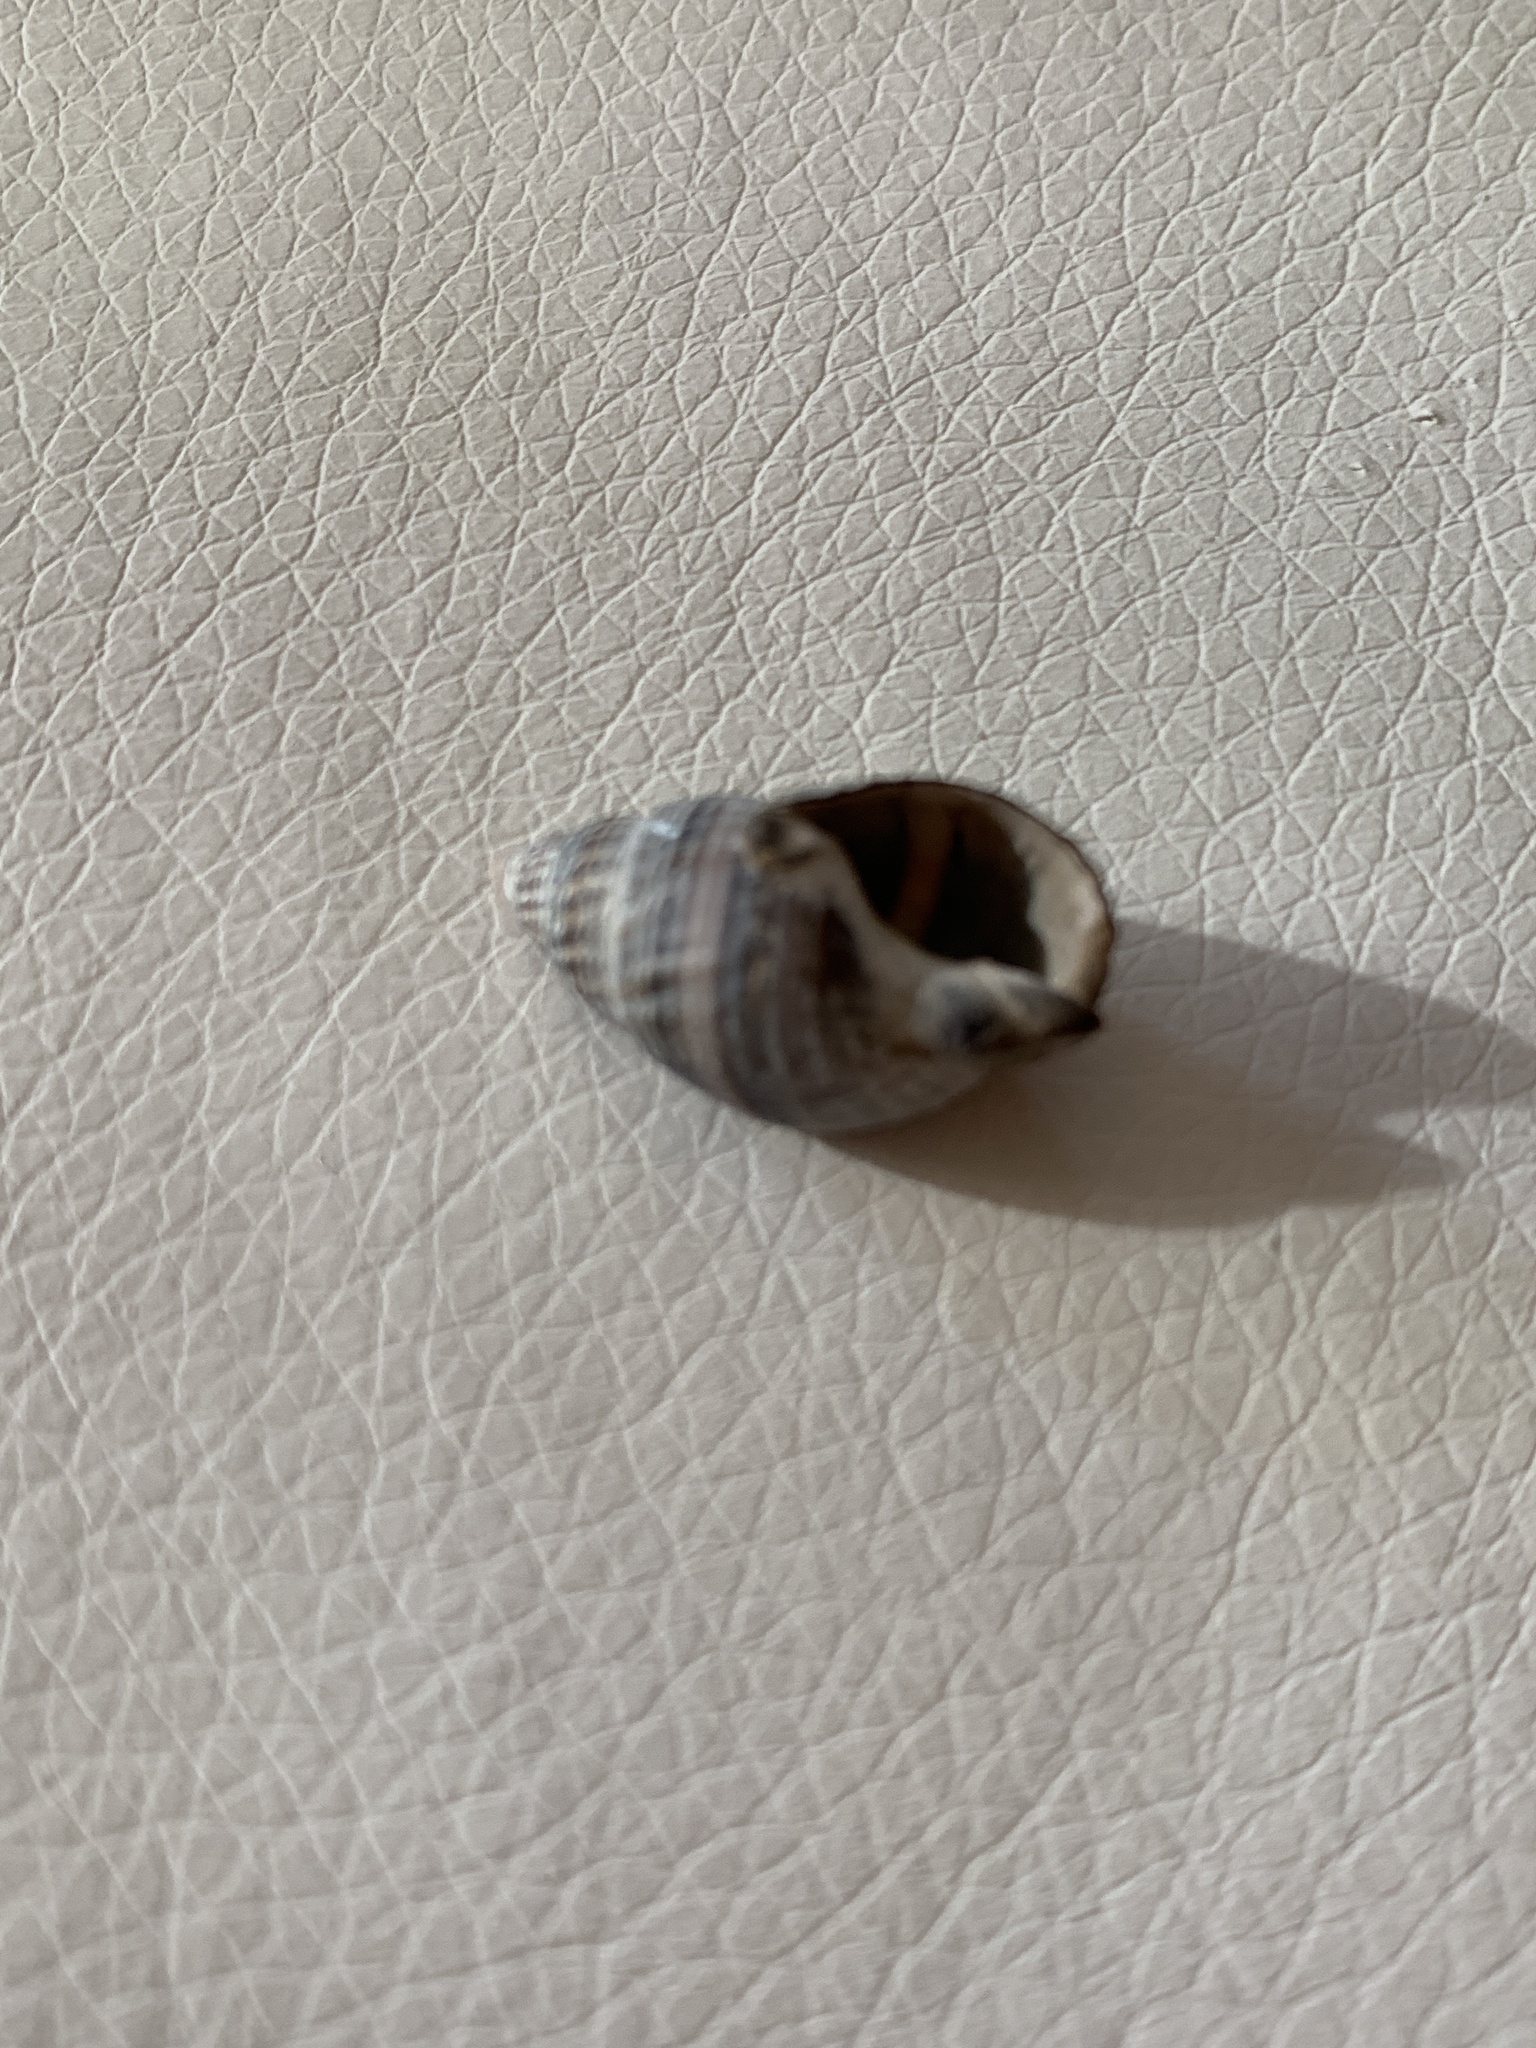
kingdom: Animalia
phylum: Mollusca
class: Gastropoda
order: Neogastropoda
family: Nassariidae
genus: Ilyanassa
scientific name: Ilyanassa obsoleta
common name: Eastern mudsnail
